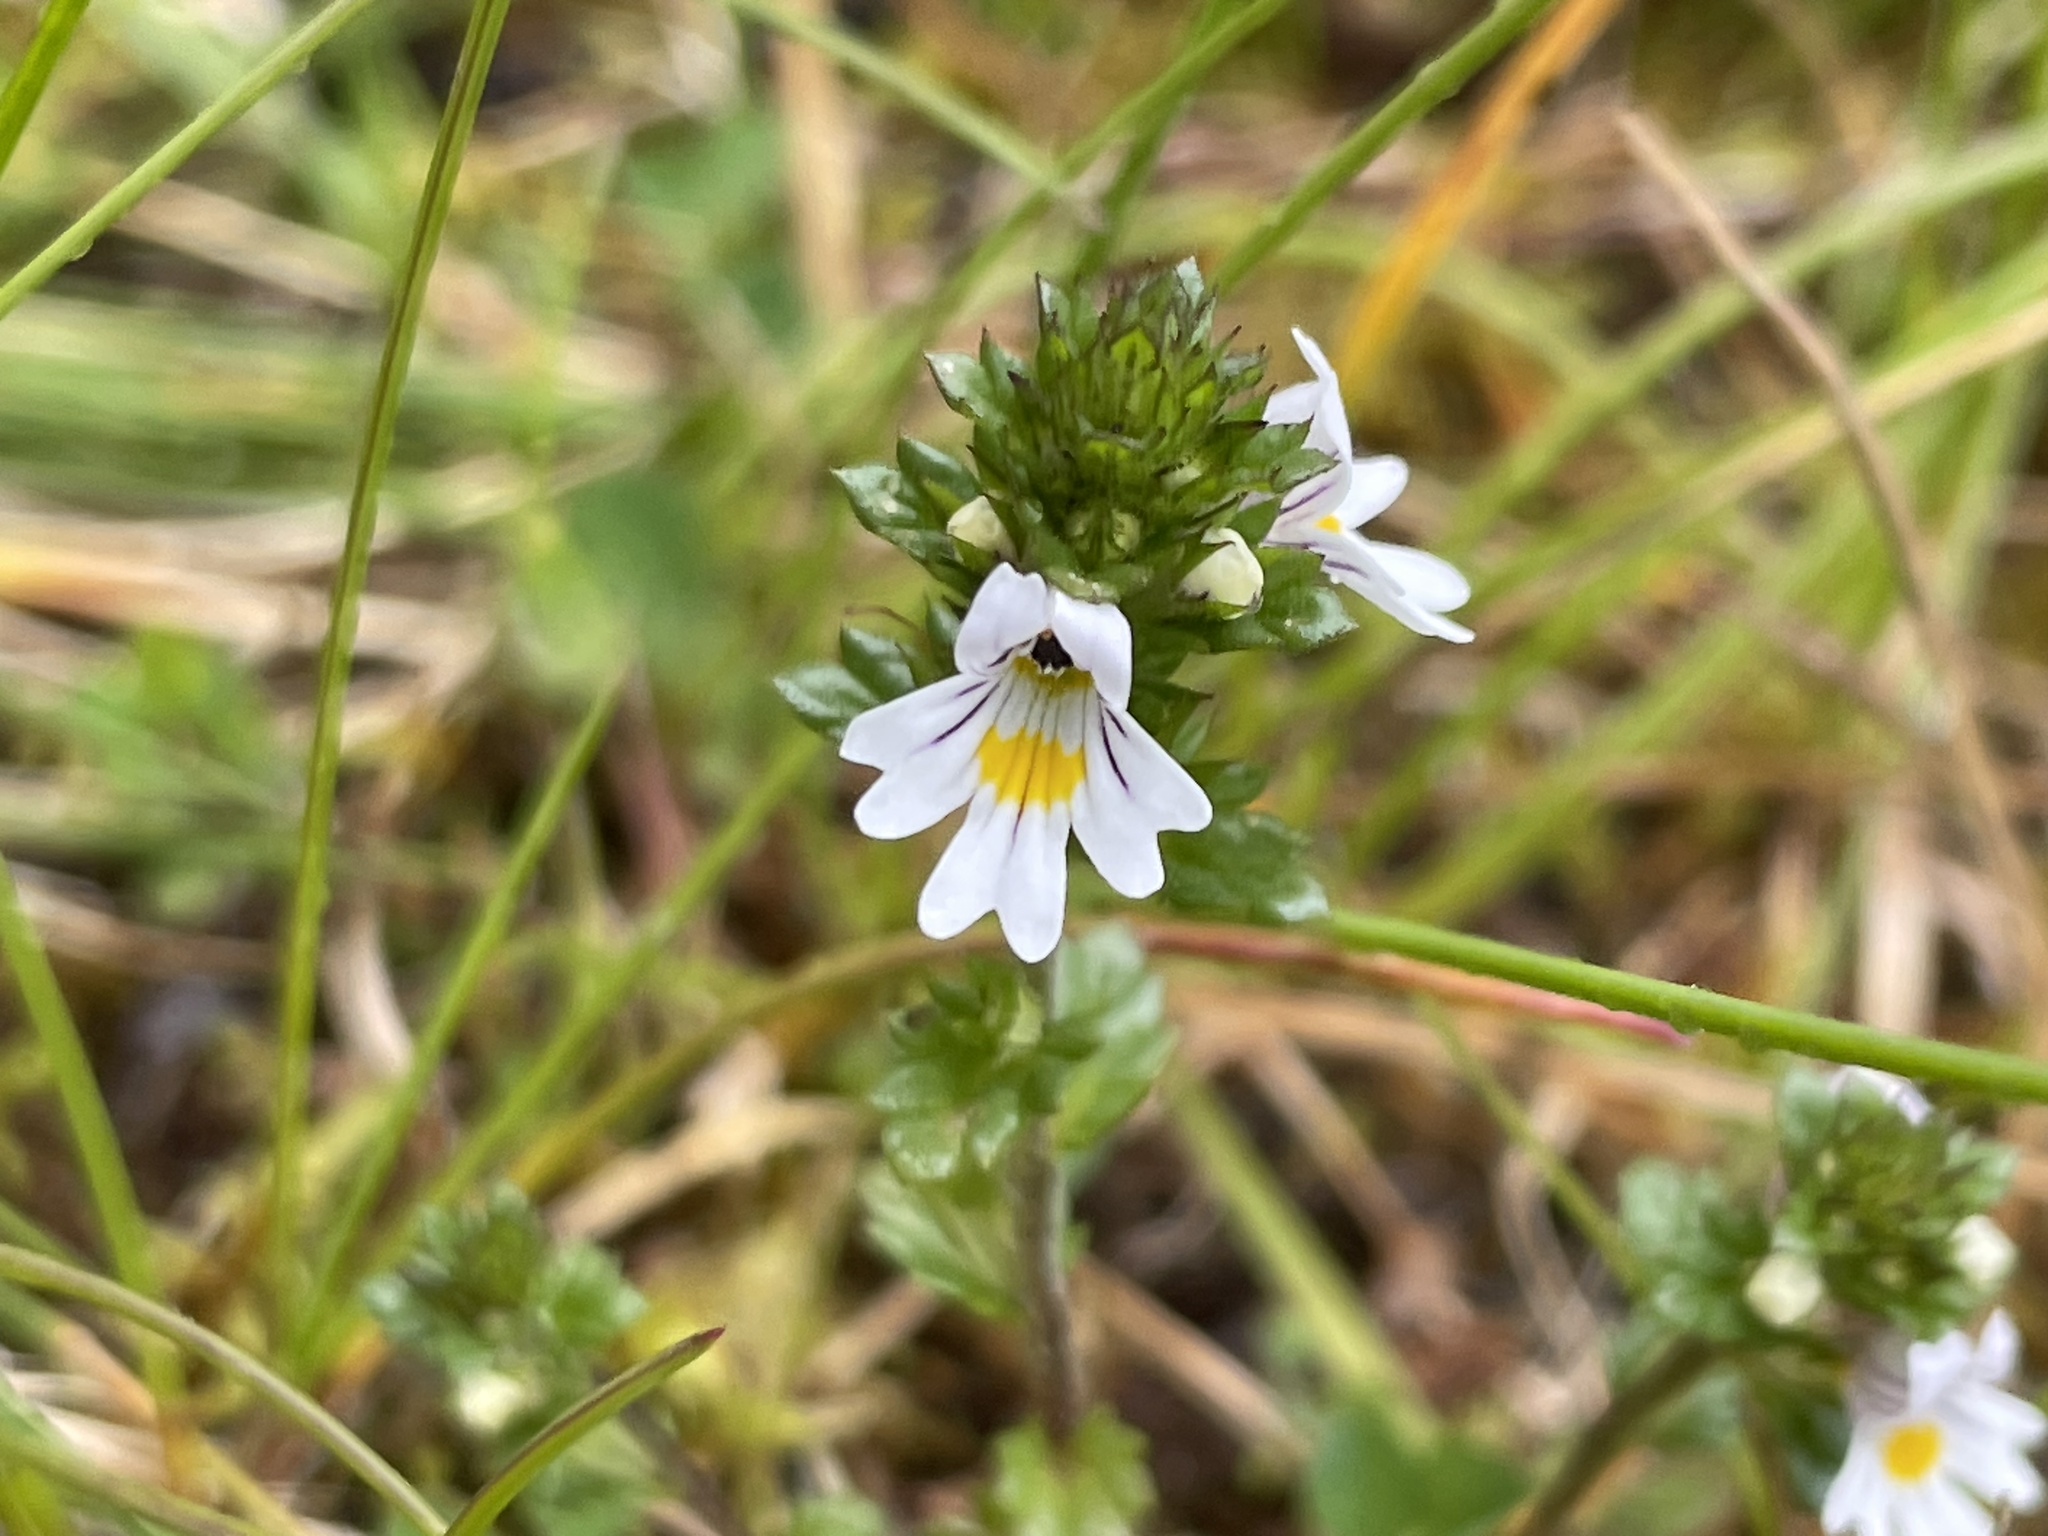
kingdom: Plantae
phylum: Tracheophyta
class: Magnoliopsida
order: Lamiales
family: Orobanchaceae
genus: Euphrasia
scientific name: Euphrasia nemorosa
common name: Common eyebright
